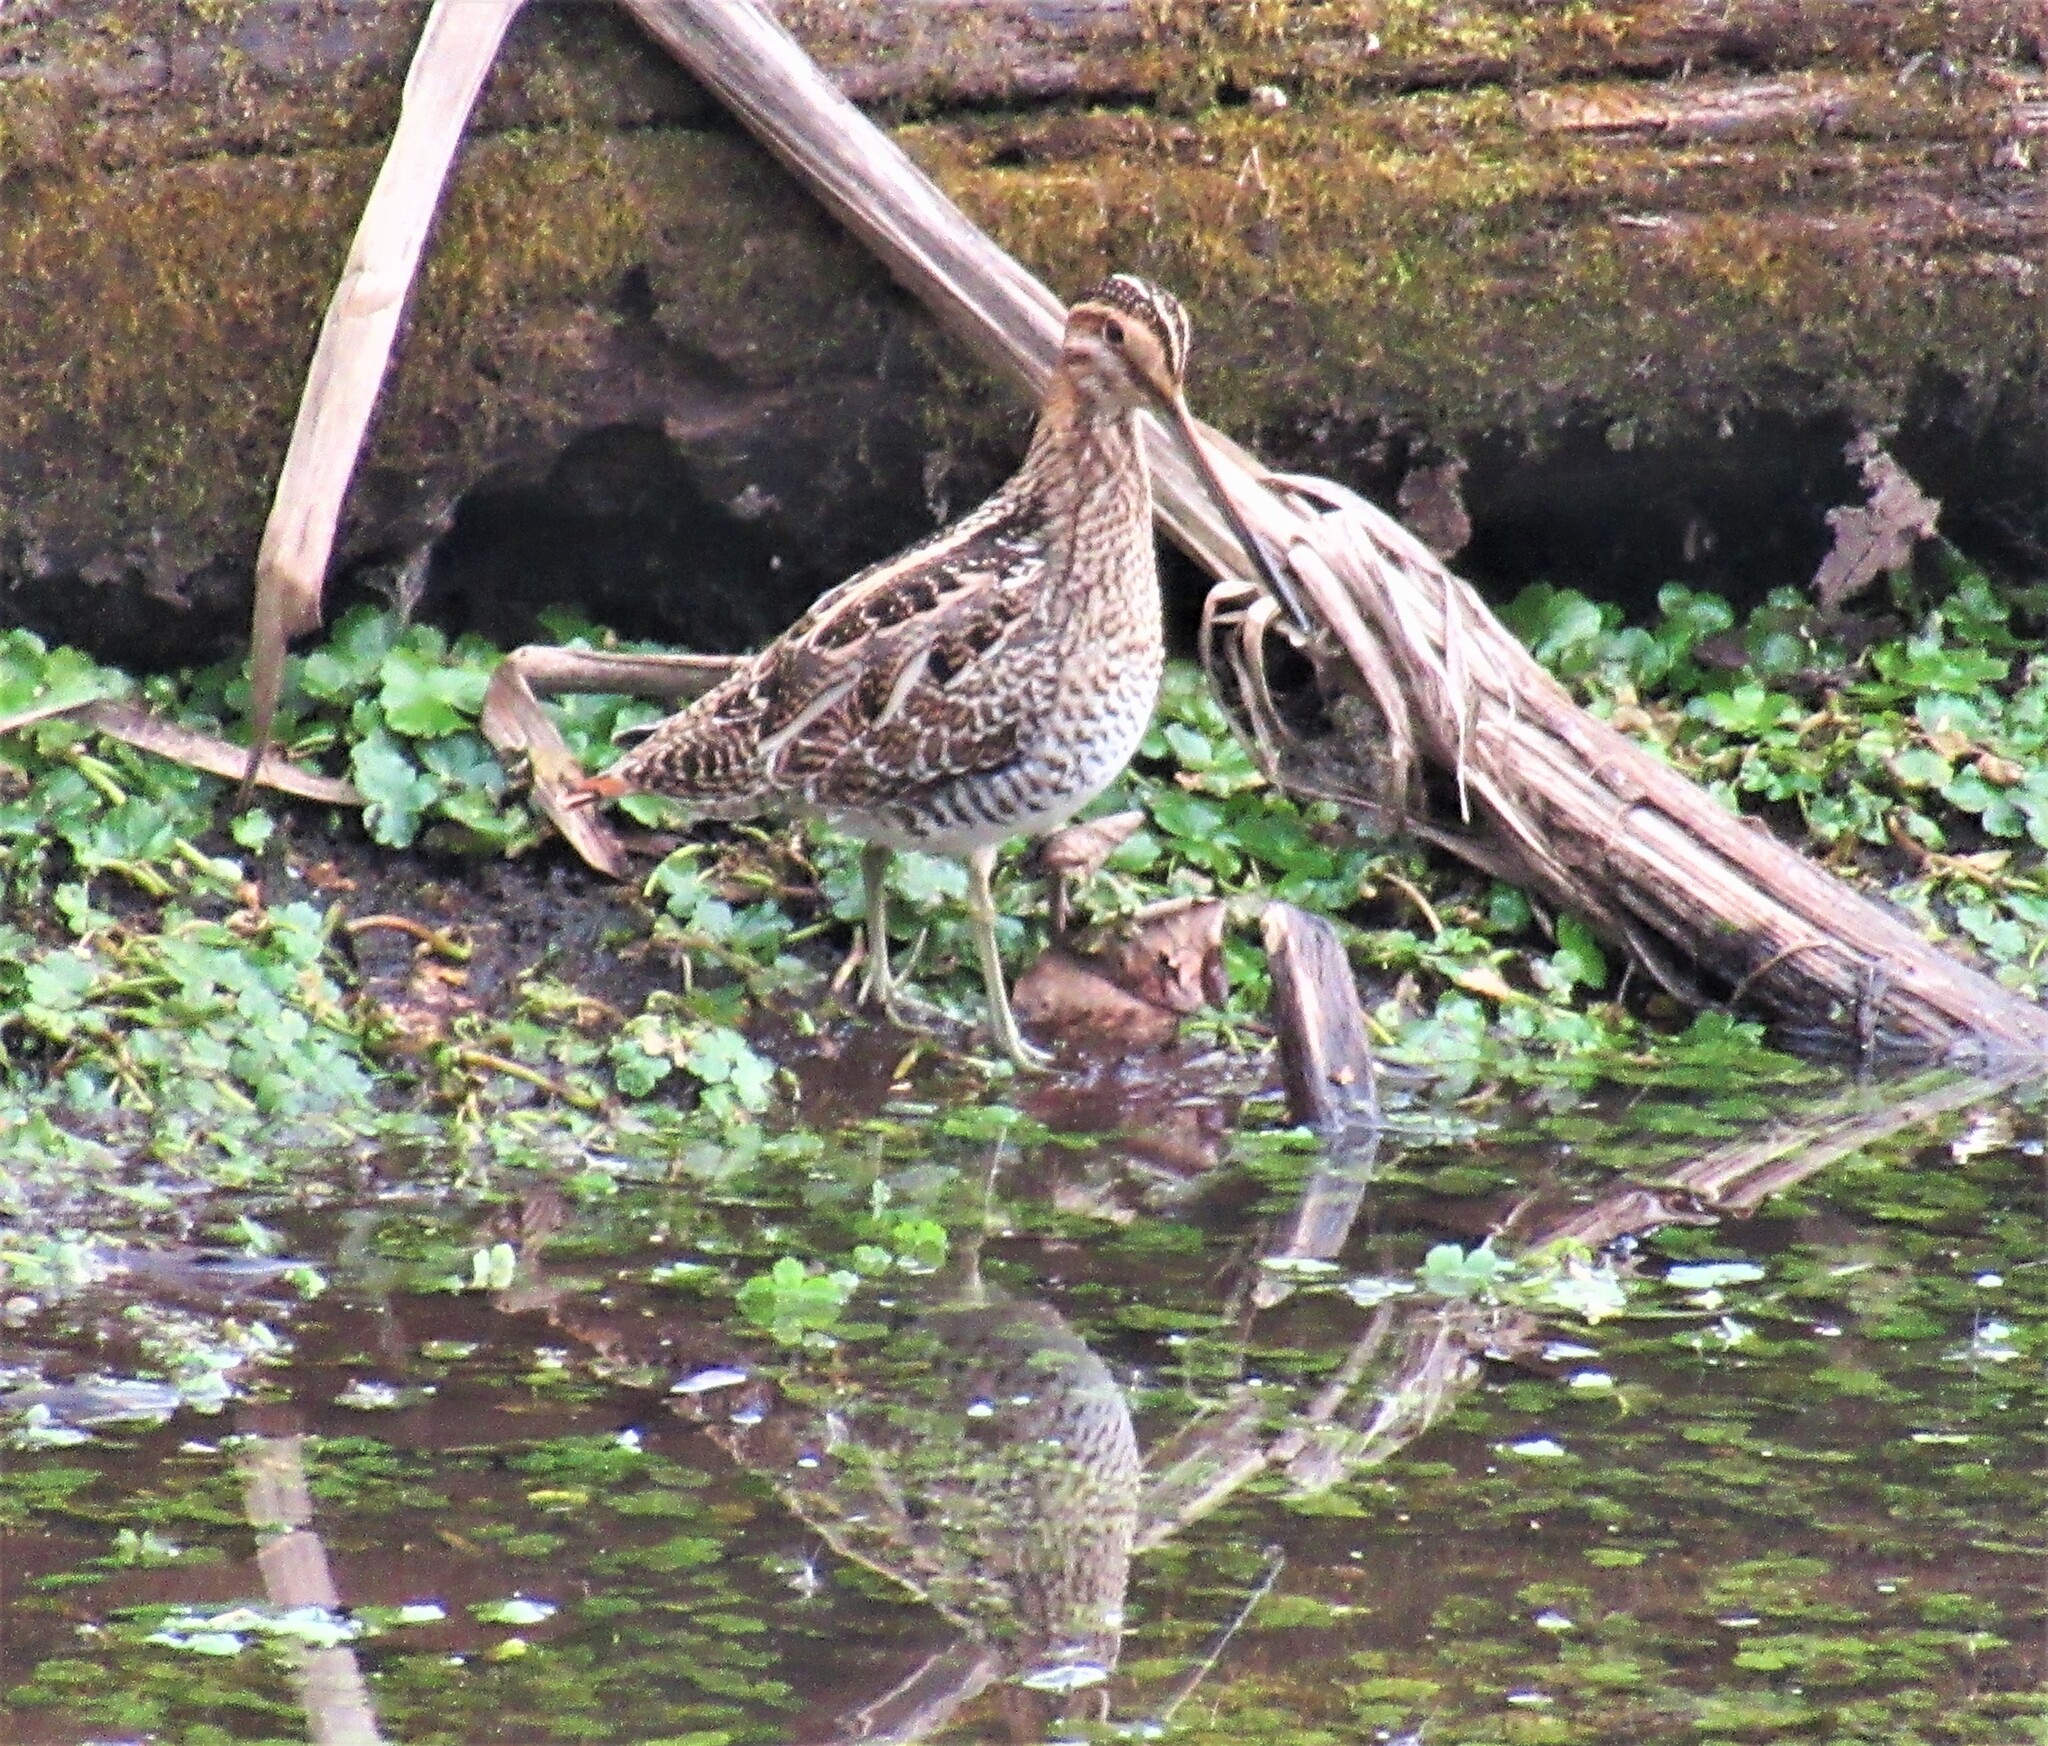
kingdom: Animalia
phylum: Chordata
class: Aves
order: Charadriiformes
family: Scolopacidae
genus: Gallinago
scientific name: Gallinago delicata
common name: Wilson's snipe
